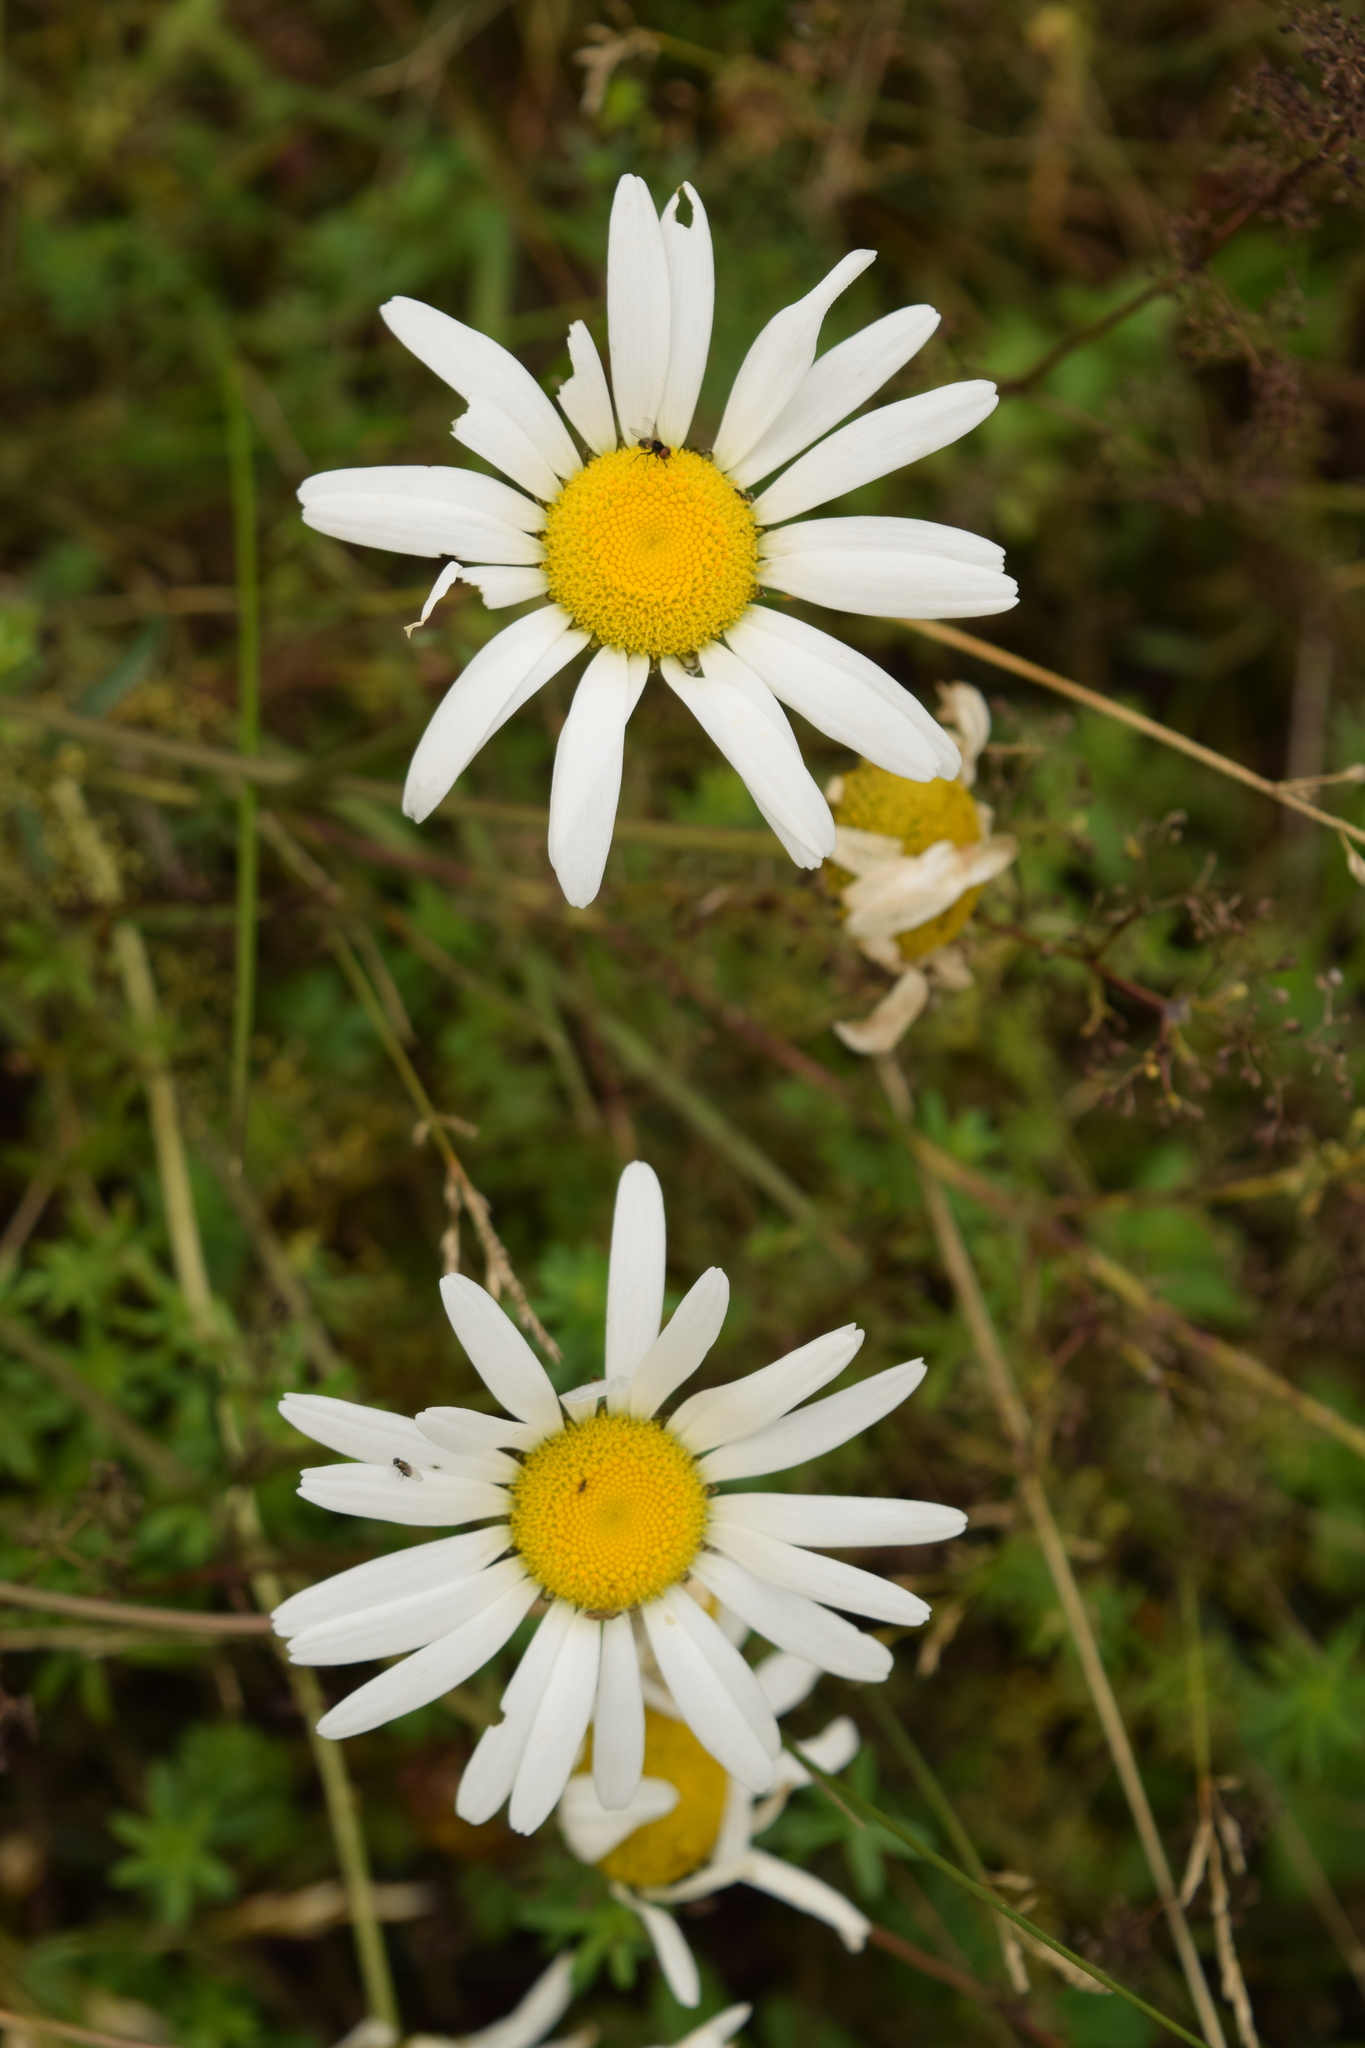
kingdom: Plantae
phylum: Tracheophyta
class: Magnoliopsida
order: Asterales
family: Asteraceae
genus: Leucanthemum
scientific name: Leucanthemum vulgare
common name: Oxeye daisy
